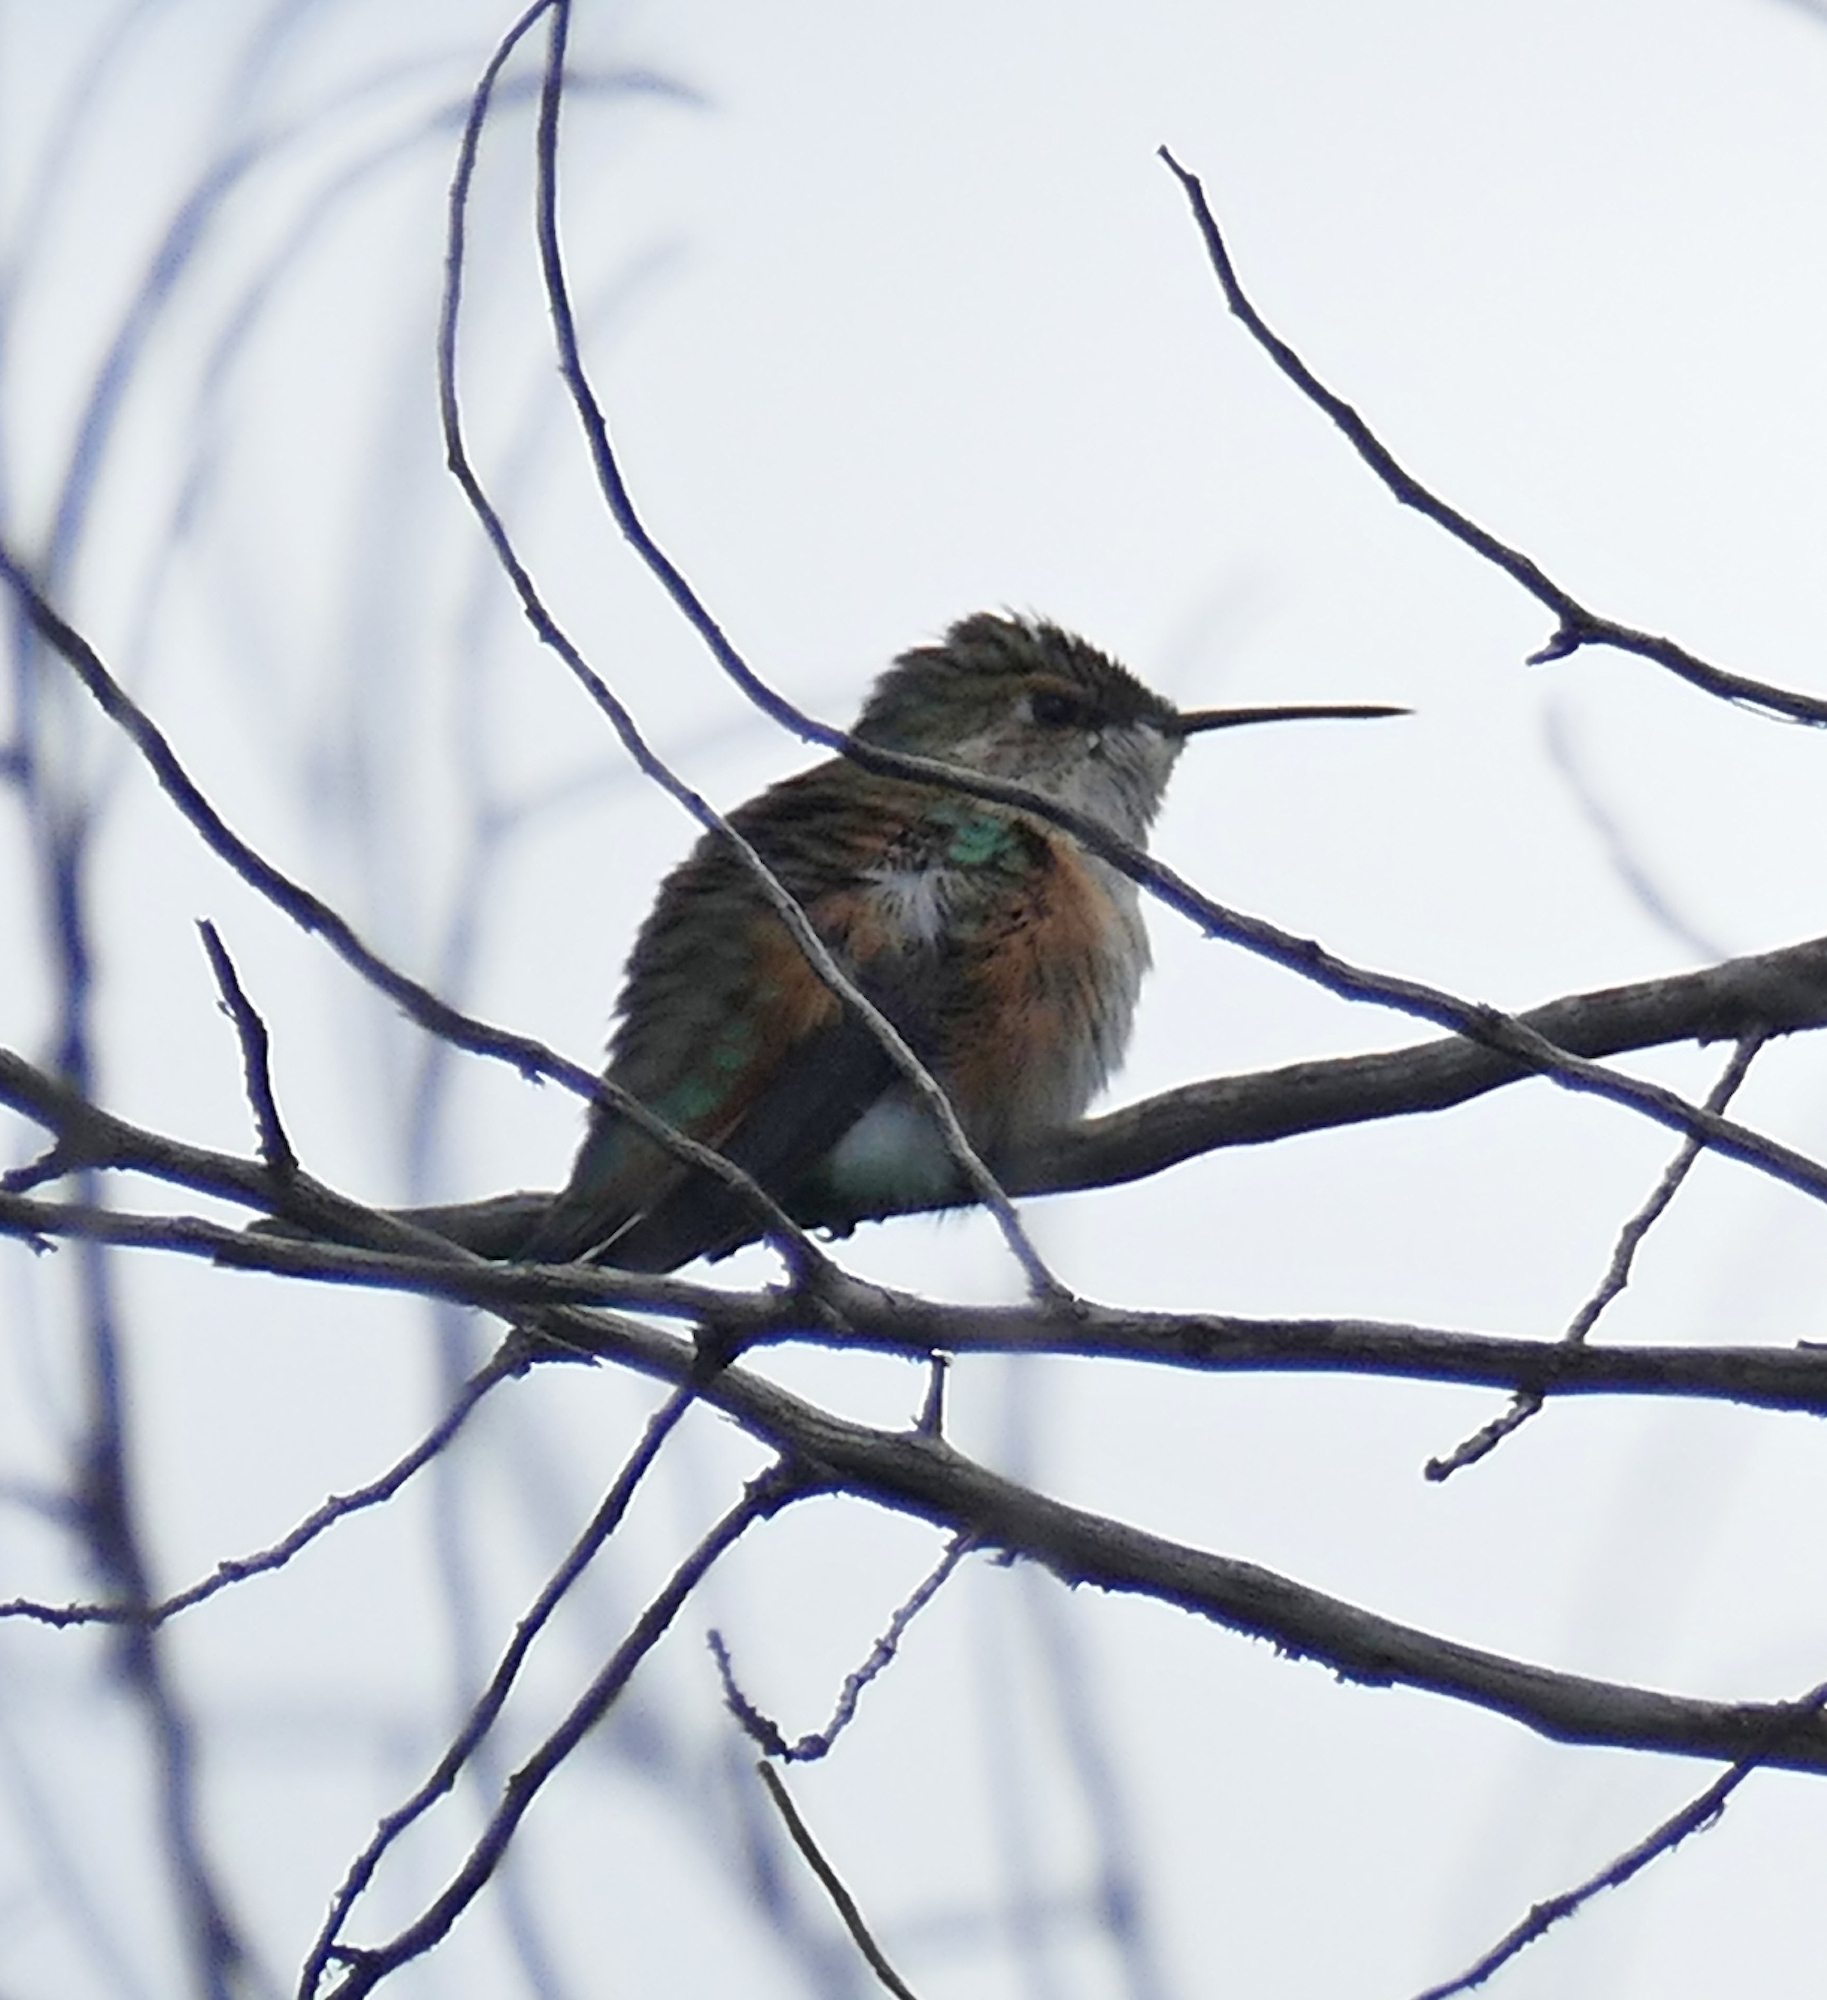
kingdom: Animalia
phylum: Chordata
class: Aves
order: Apodiformes
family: Trochilidae
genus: Selasphorus
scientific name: Selasphorus rufus
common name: Rufous hummingbird
